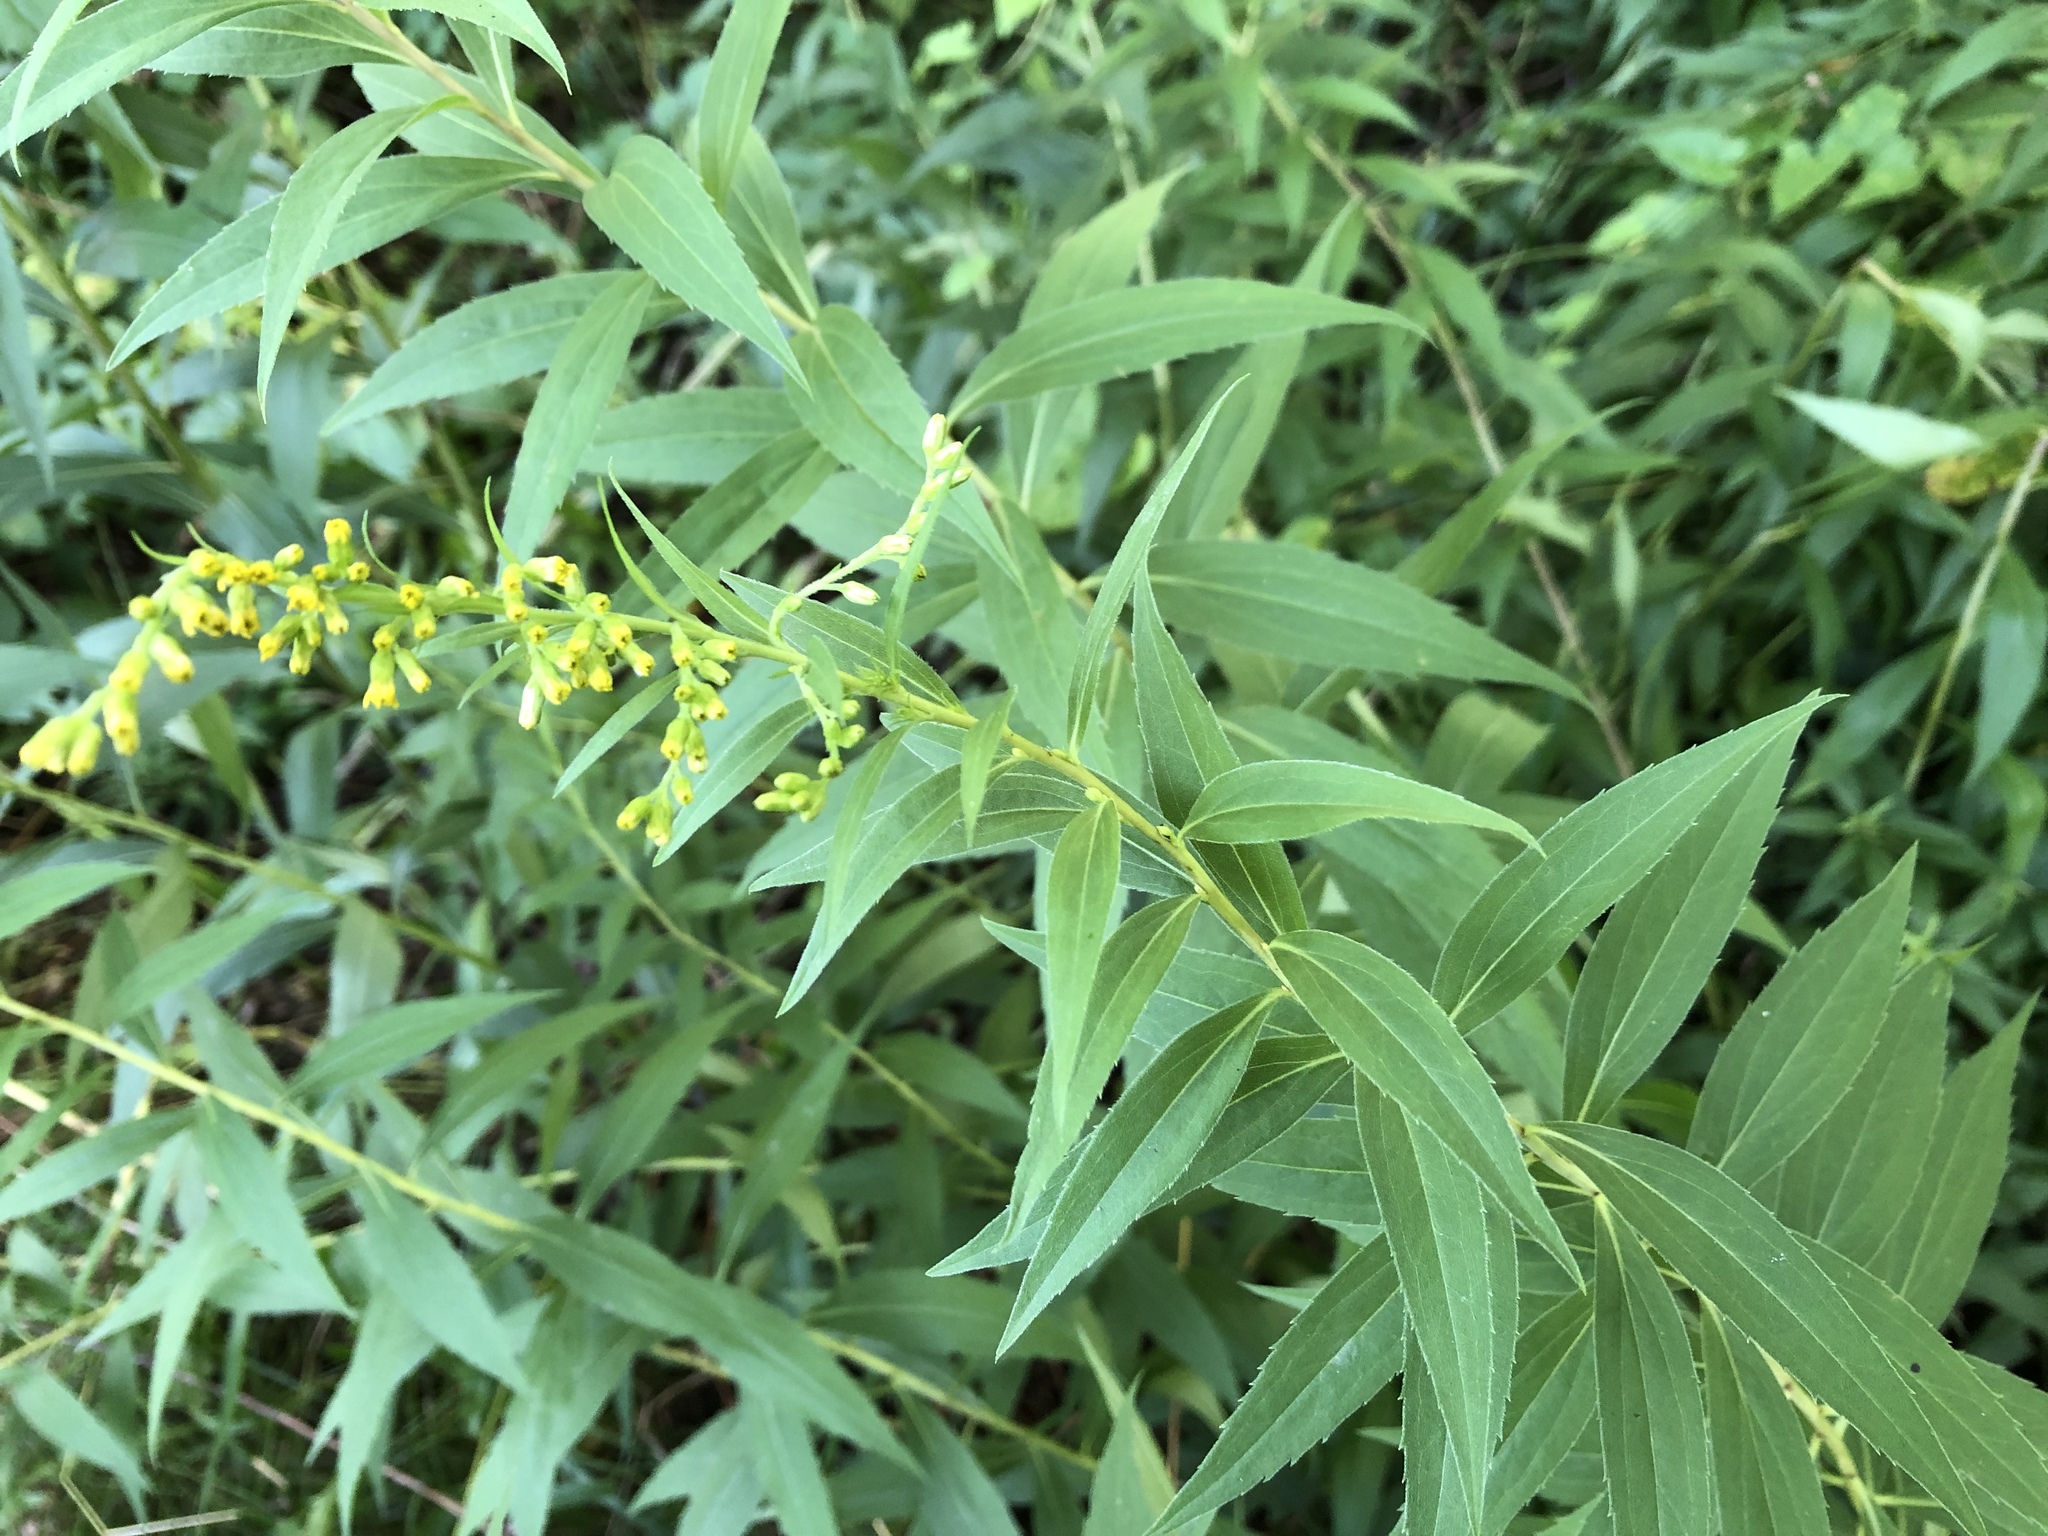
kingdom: Plantae
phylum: Tracheophyta
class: Magnoliopsida
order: Asterales
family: Asteraceae
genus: Solidago
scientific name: Solidago canadensis
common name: Canada goldenrod
